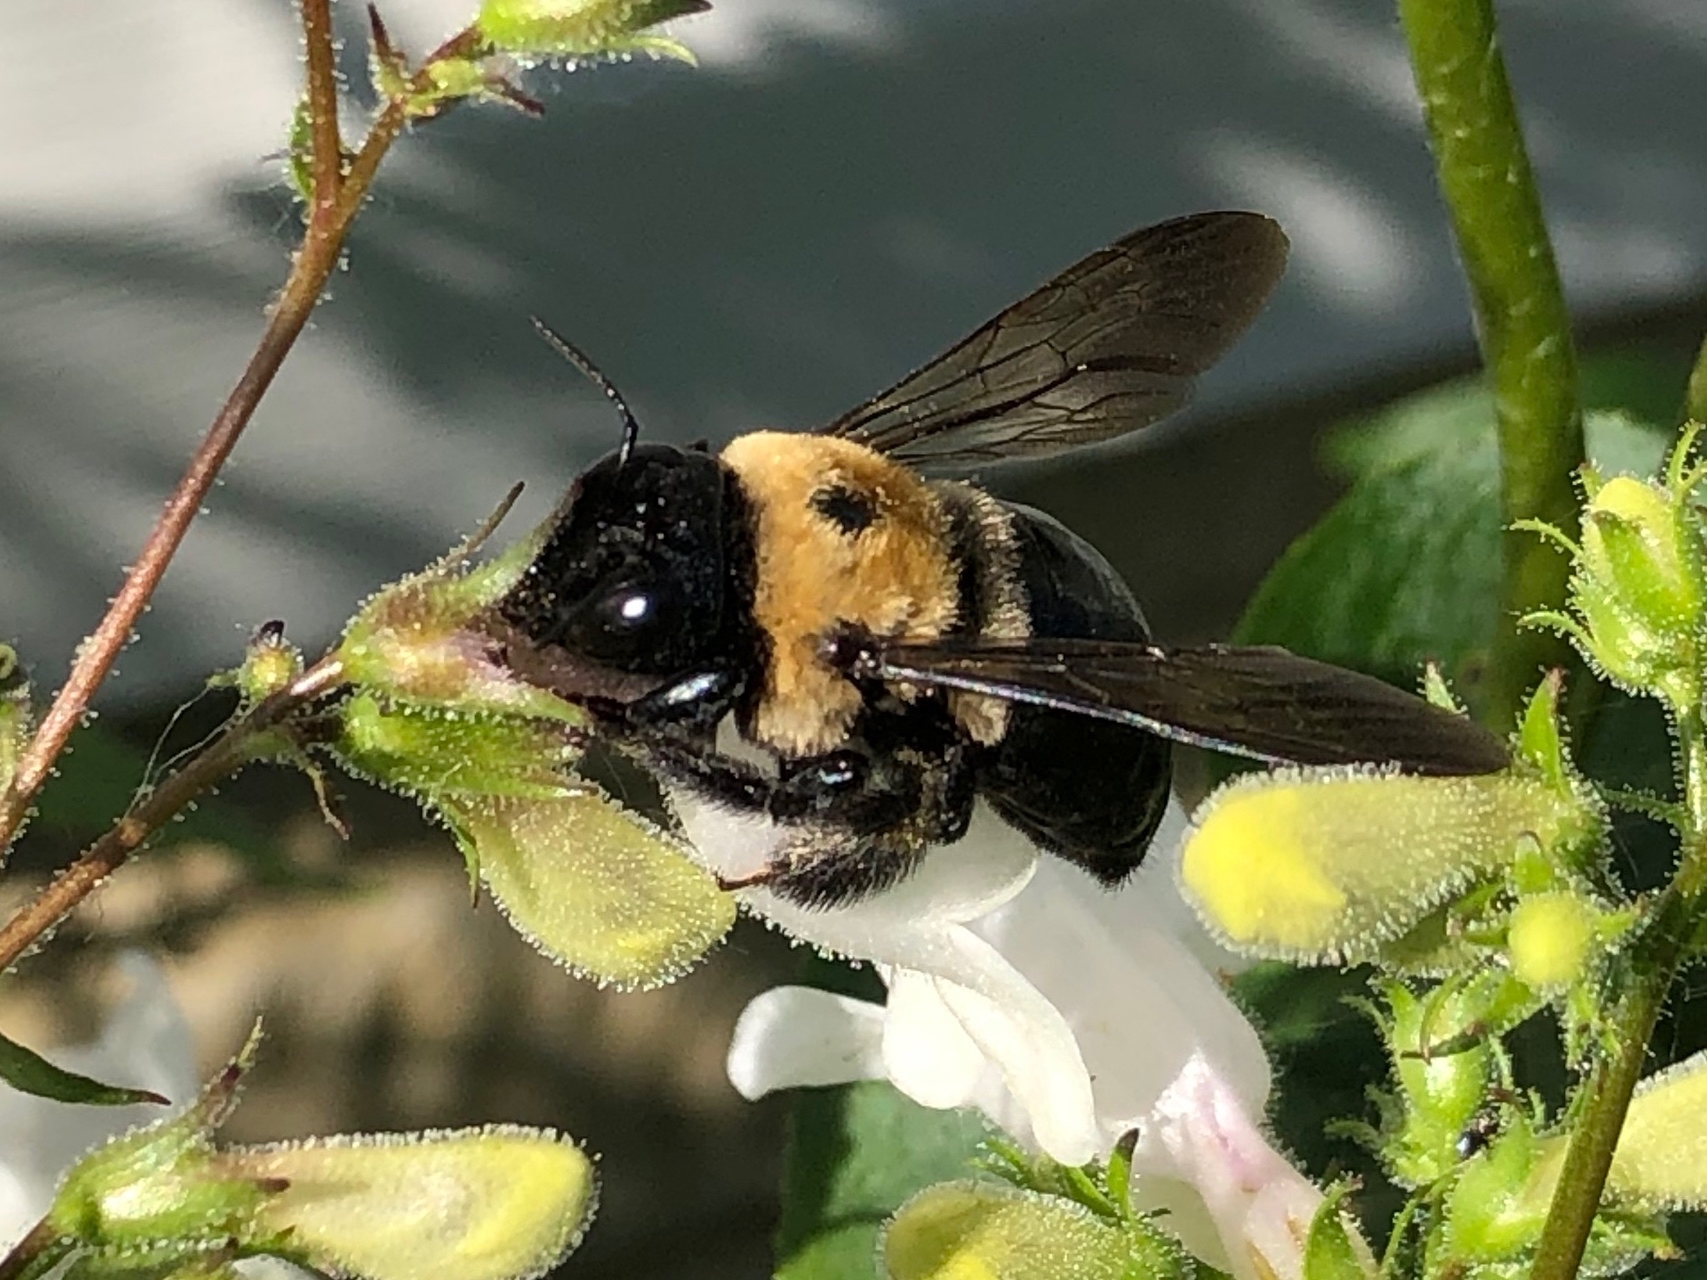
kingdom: Animalia
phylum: Arthropoda
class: Insecta
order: Hymenoptera
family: Apidae
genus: Xylocopa
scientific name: Xylocopa virginica
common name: Carpenter bee
